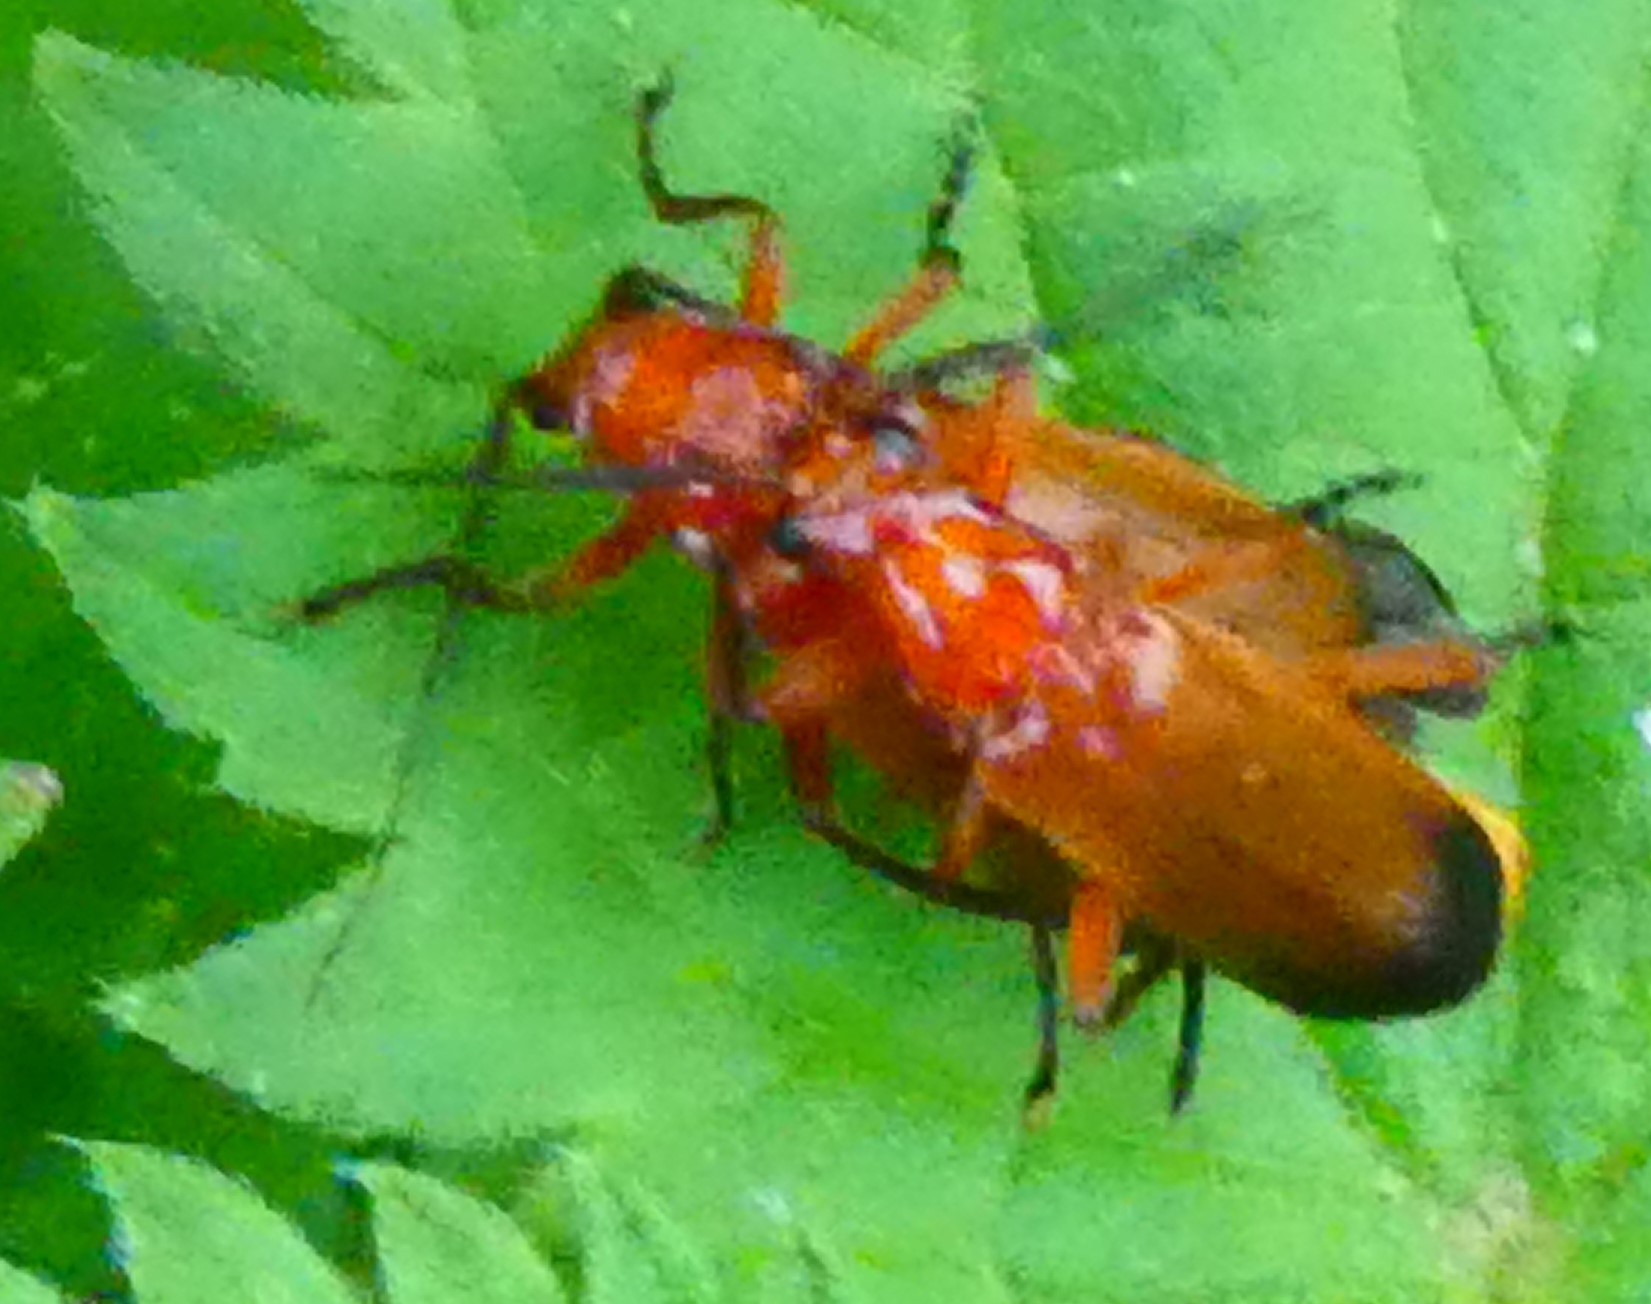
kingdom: Animalia
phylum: Arthropoda
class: Insecta
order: Coleoptera
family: Cantharidae
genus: Rhagonycha
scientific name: Rhagonycha fulva
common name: Common red soldier beetle
